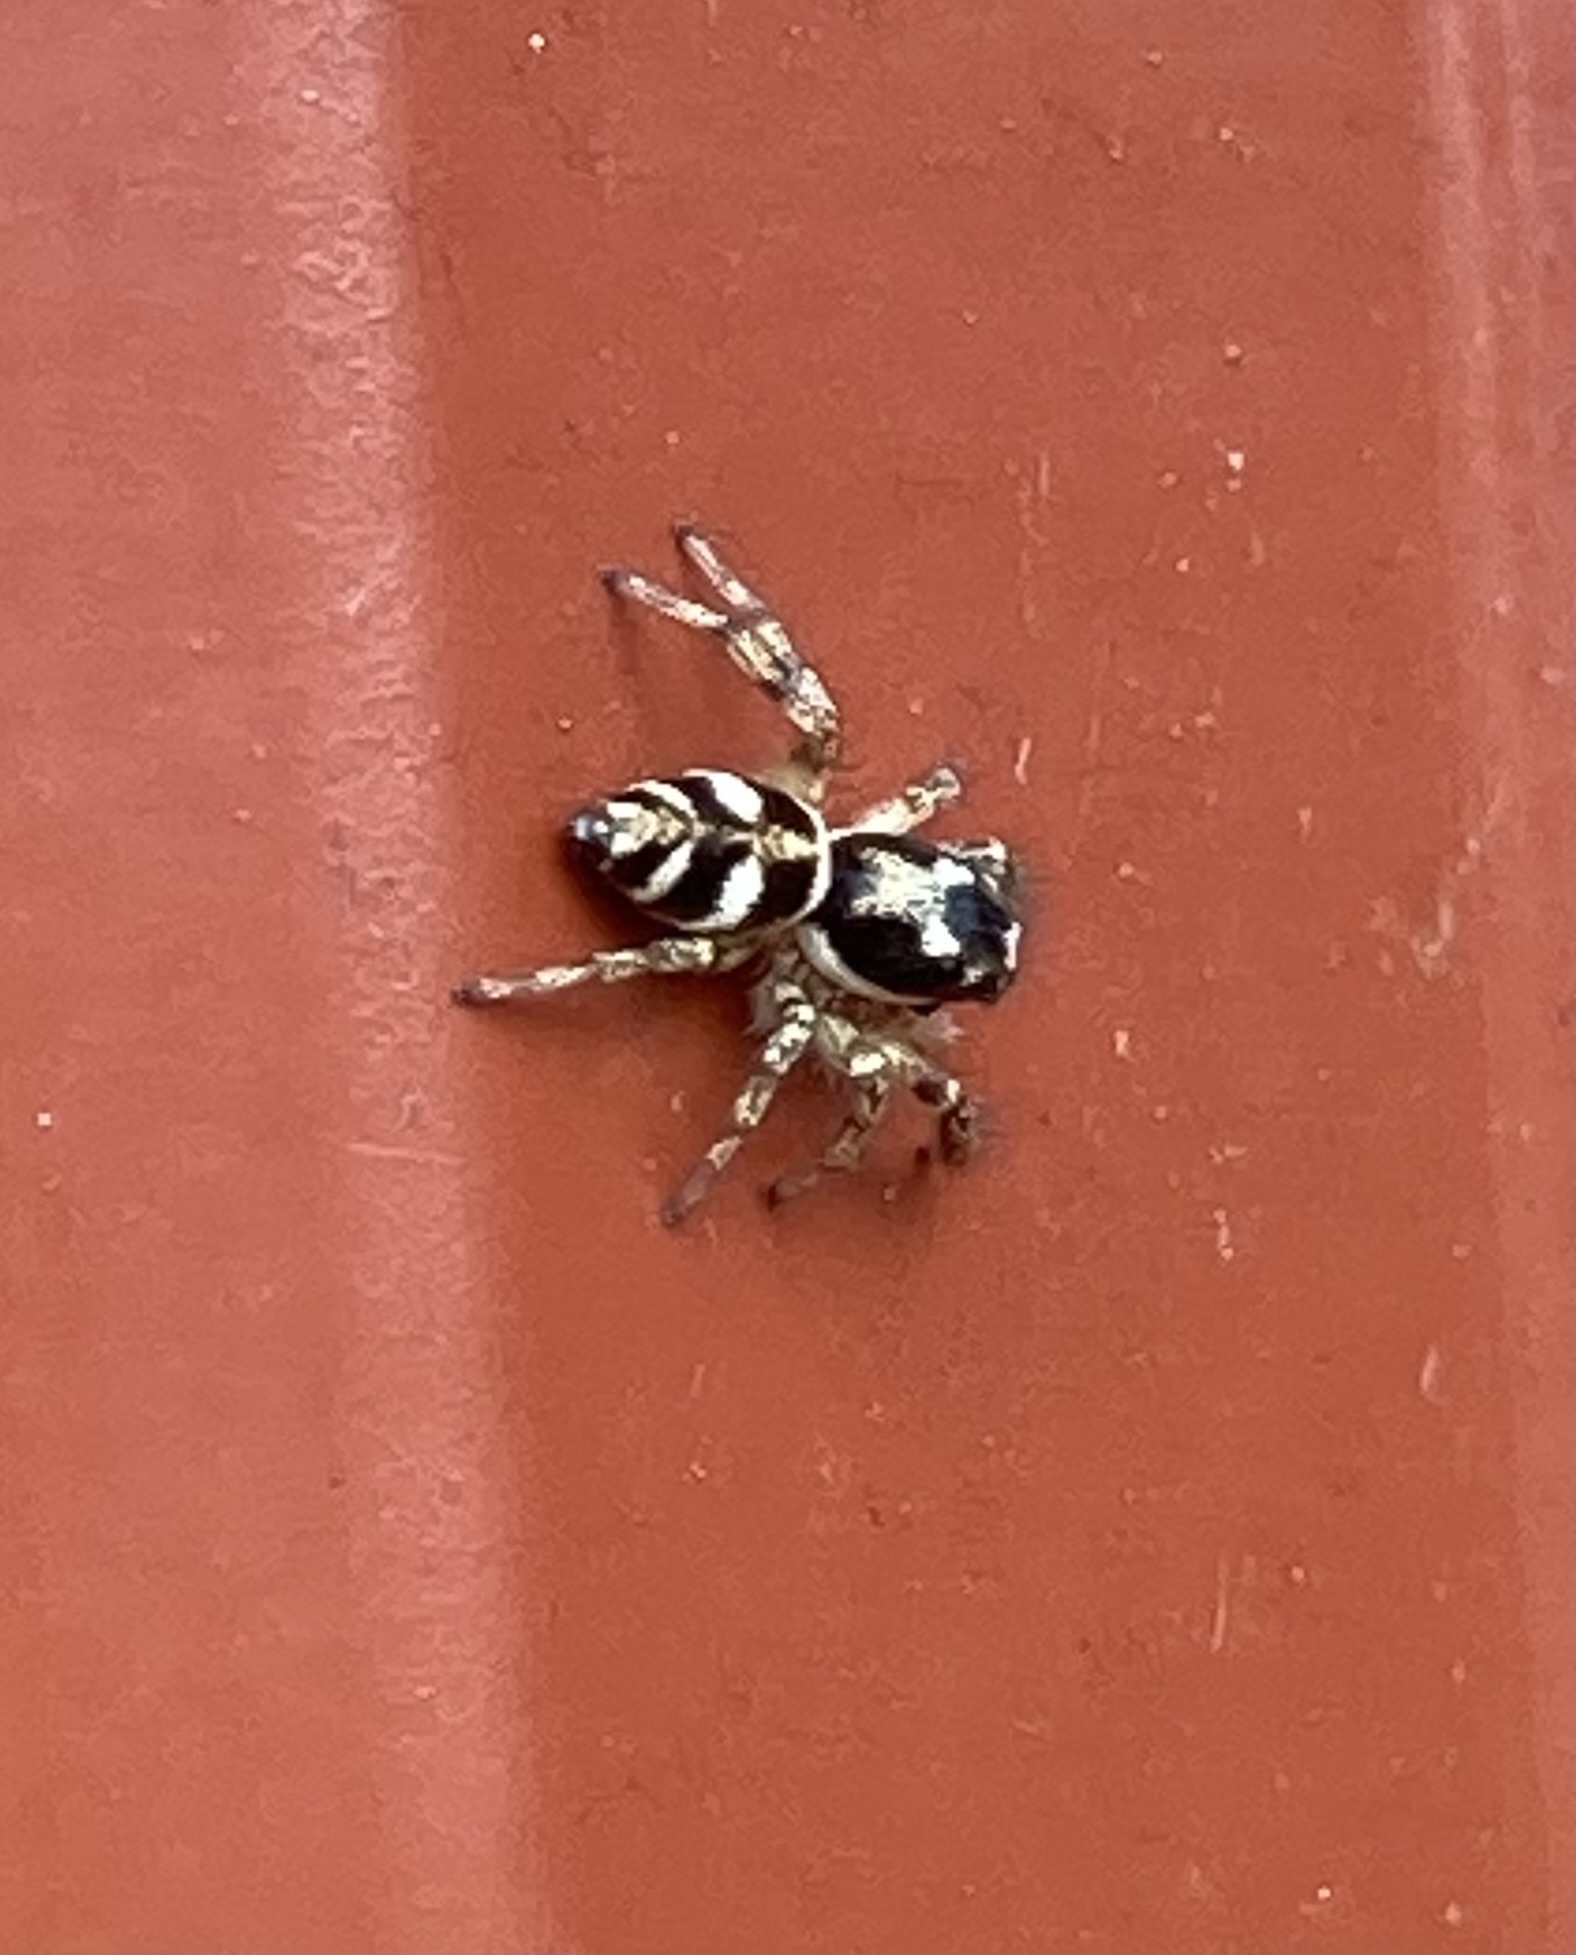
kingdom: Animalia
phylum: Arthropoda
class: Arachnida
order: Araneae
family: Salticidae
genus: Salticus
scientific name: Salticus scenicus
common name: Zebra jumper
